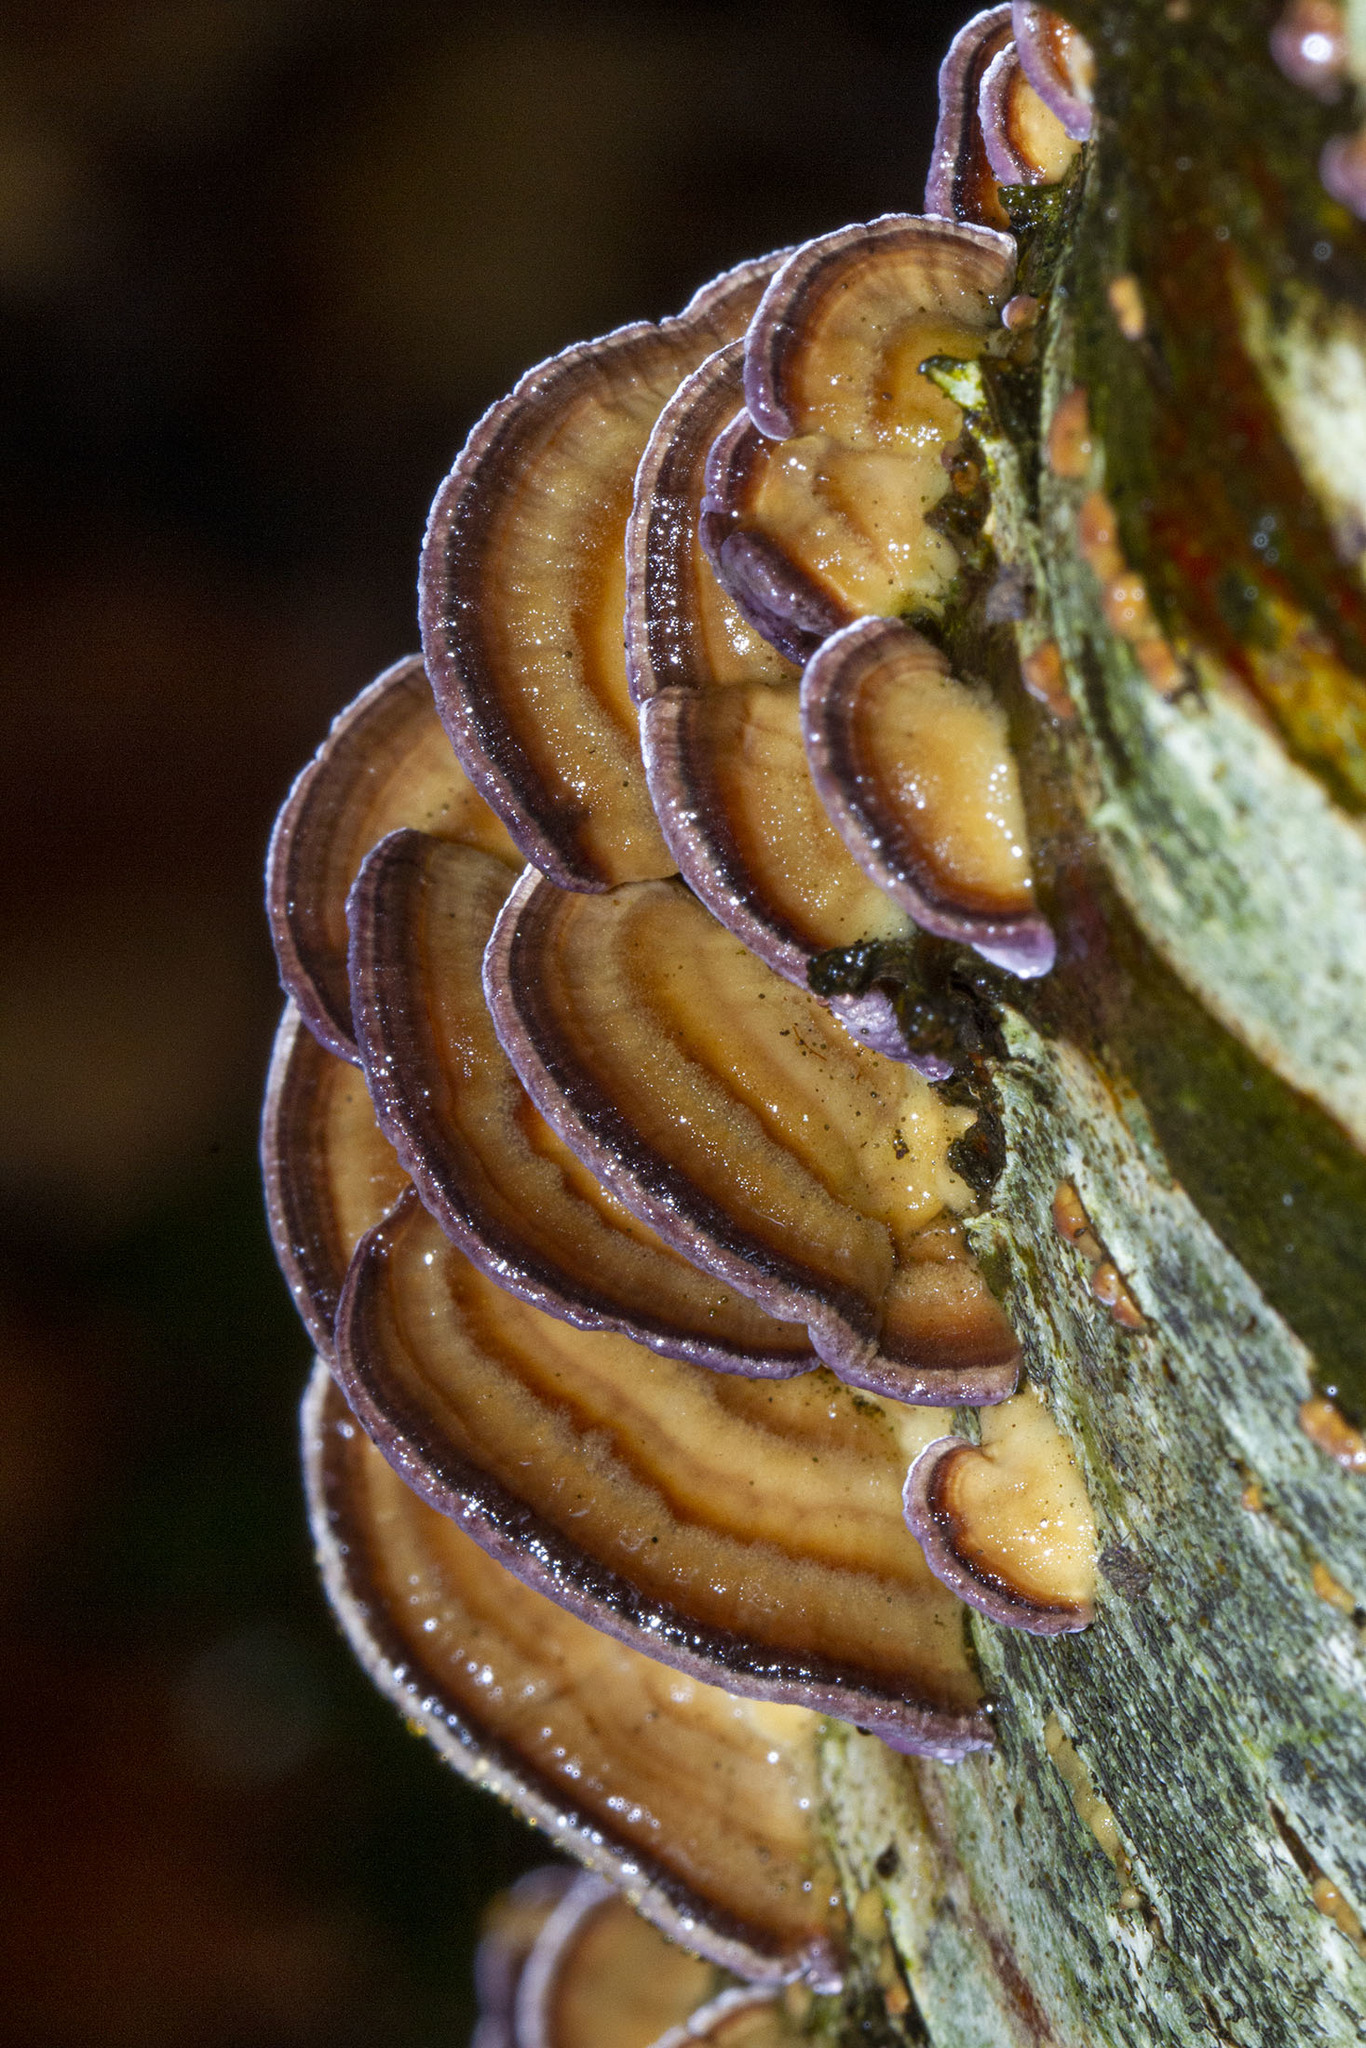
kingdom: Fungi
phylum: Basidiomycota
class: Agaricomycetes
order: Hymenochaetales
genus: Trichaptum
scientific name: Trichaptum biforme
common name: Violet-toothed polypore
